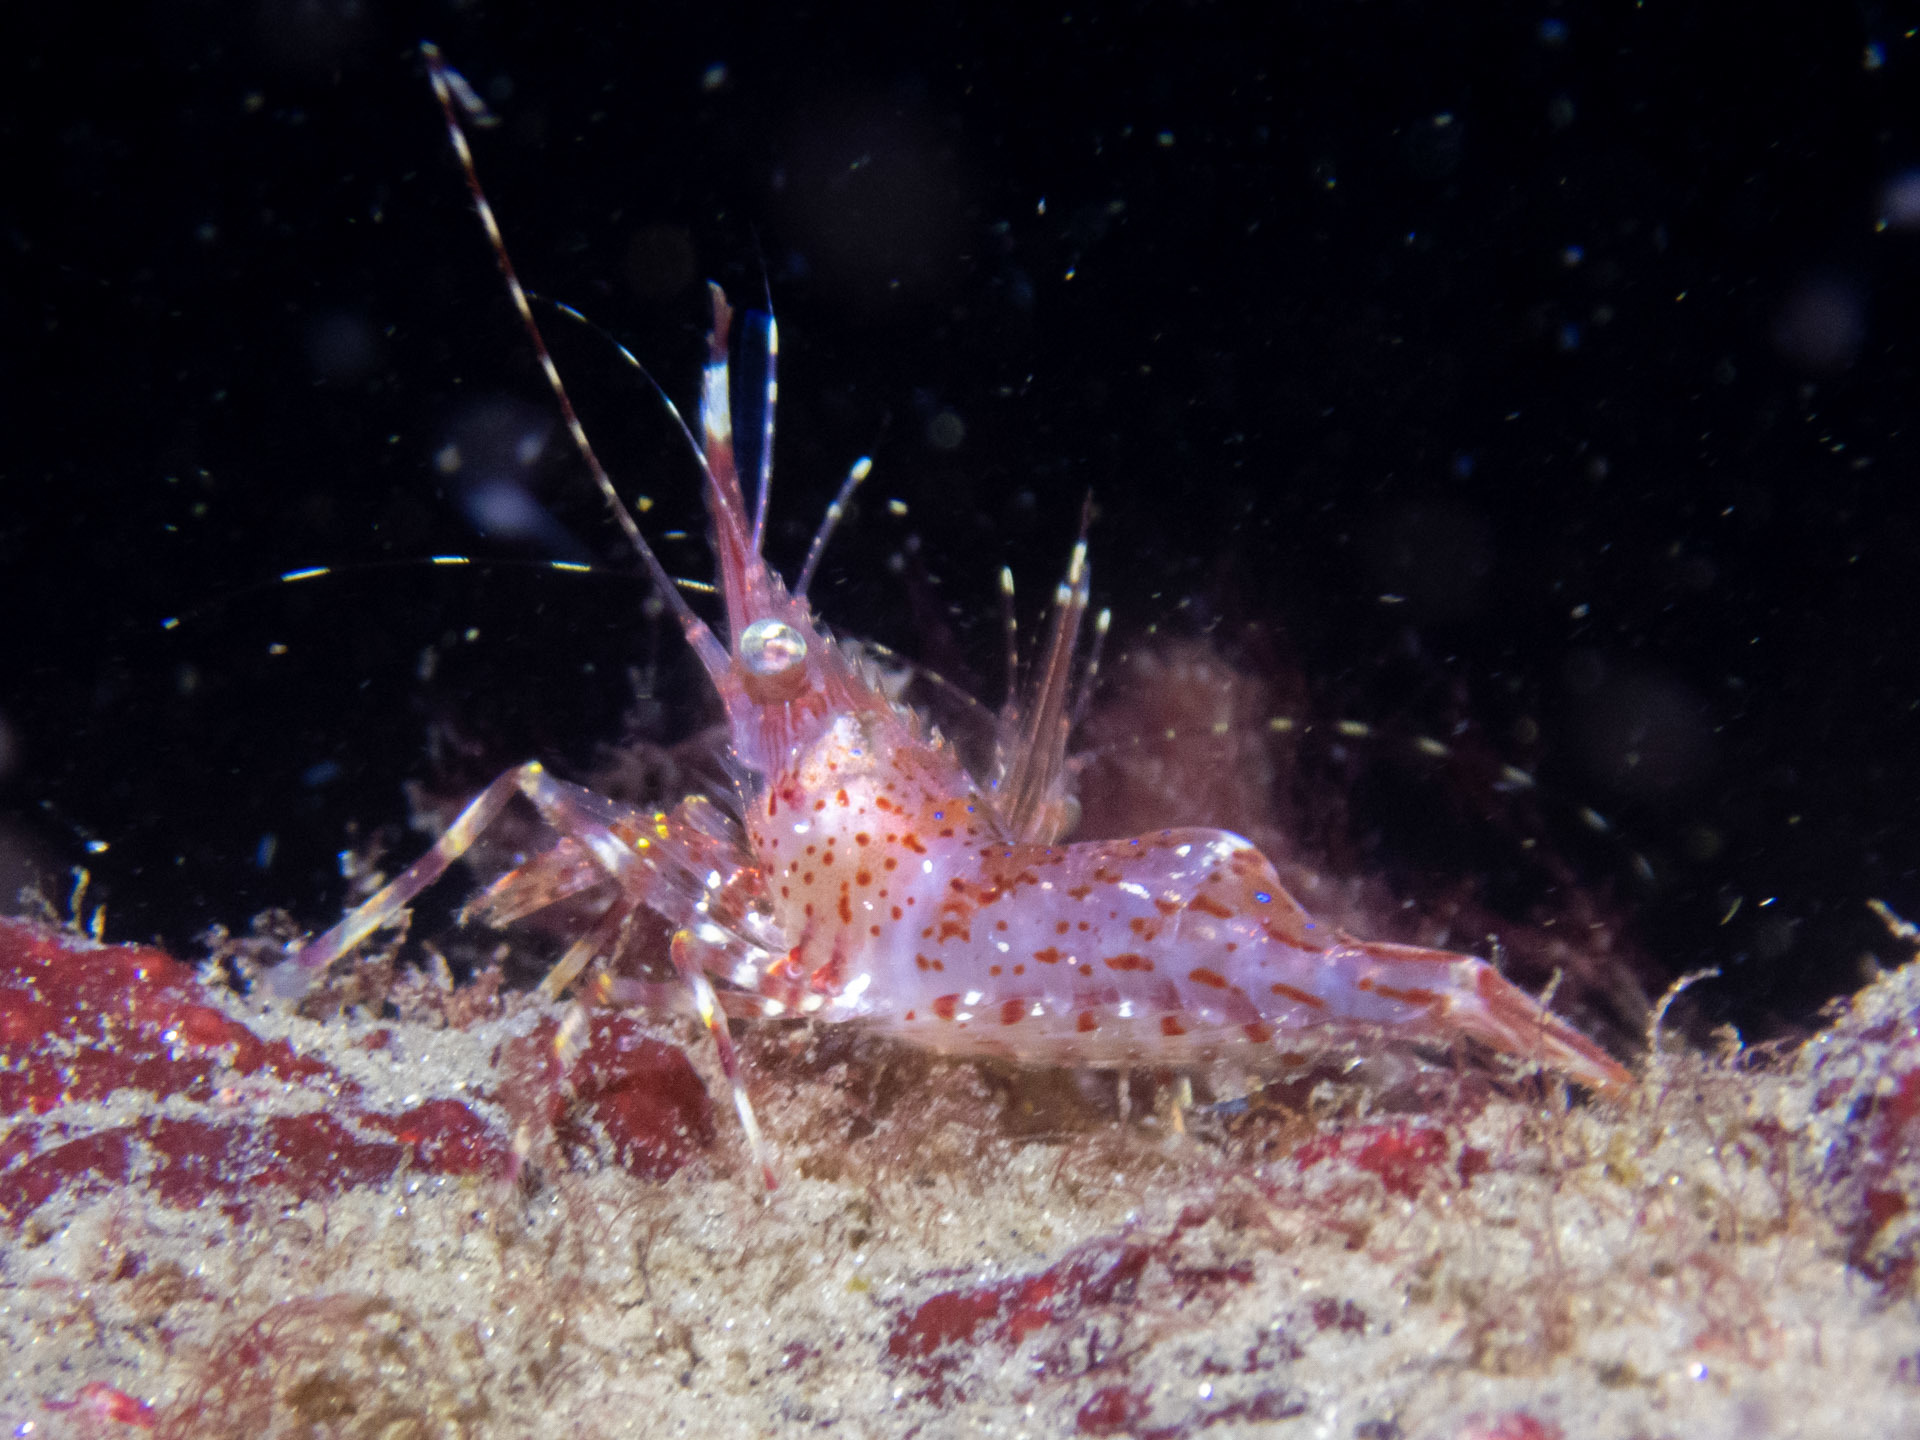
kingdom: Animalia
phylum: Arthropoda
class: Malacostraca
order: Decapoda
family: Pandalidae
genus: Pandalus
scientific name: Pandalus gurneyi
